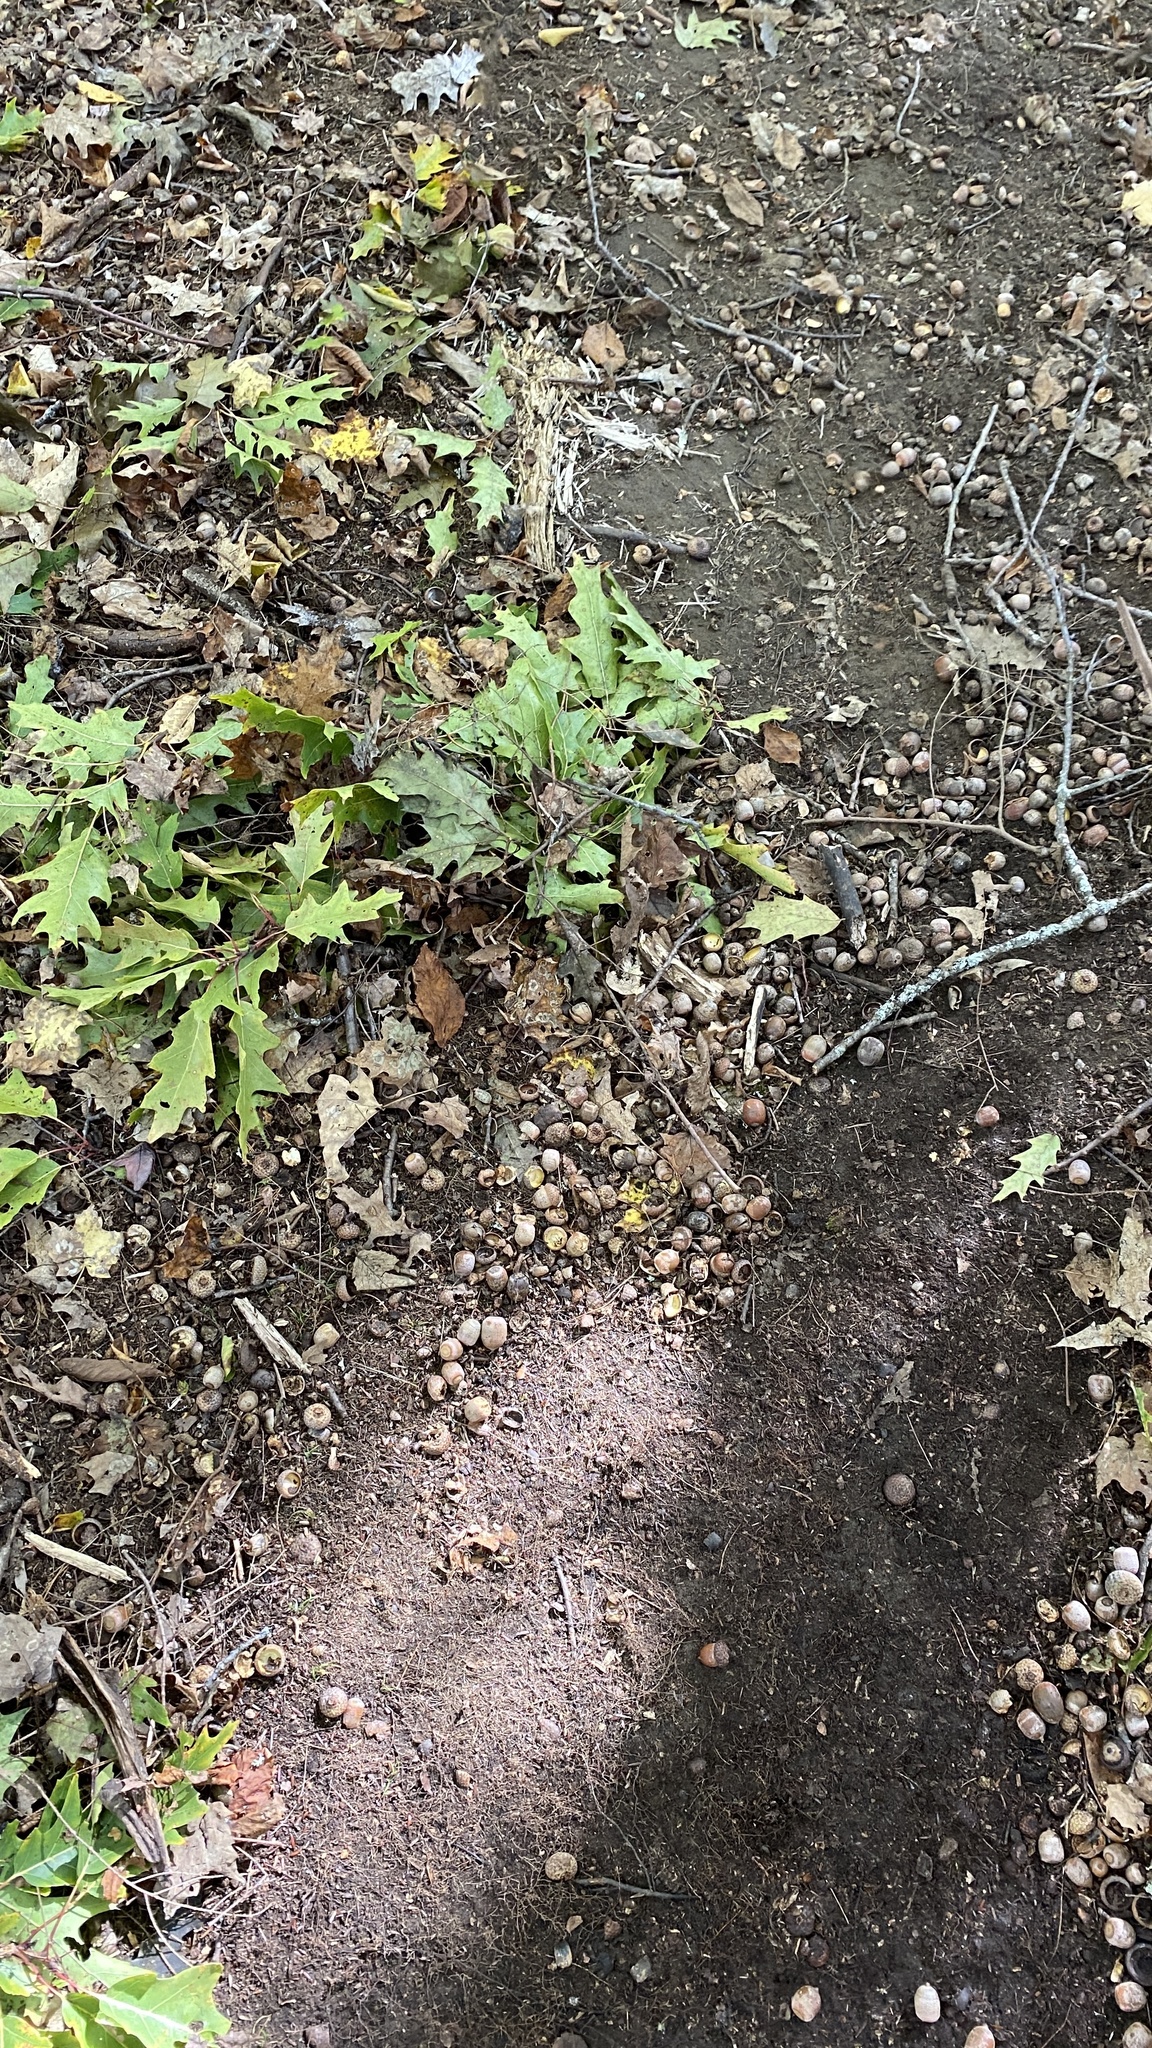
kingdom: Plantae
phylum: Tracheophyta
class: Magnoliopsida
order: Fagales
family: Fagaceae
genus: Quercus
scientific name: Quercus rubra
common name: Red oak
